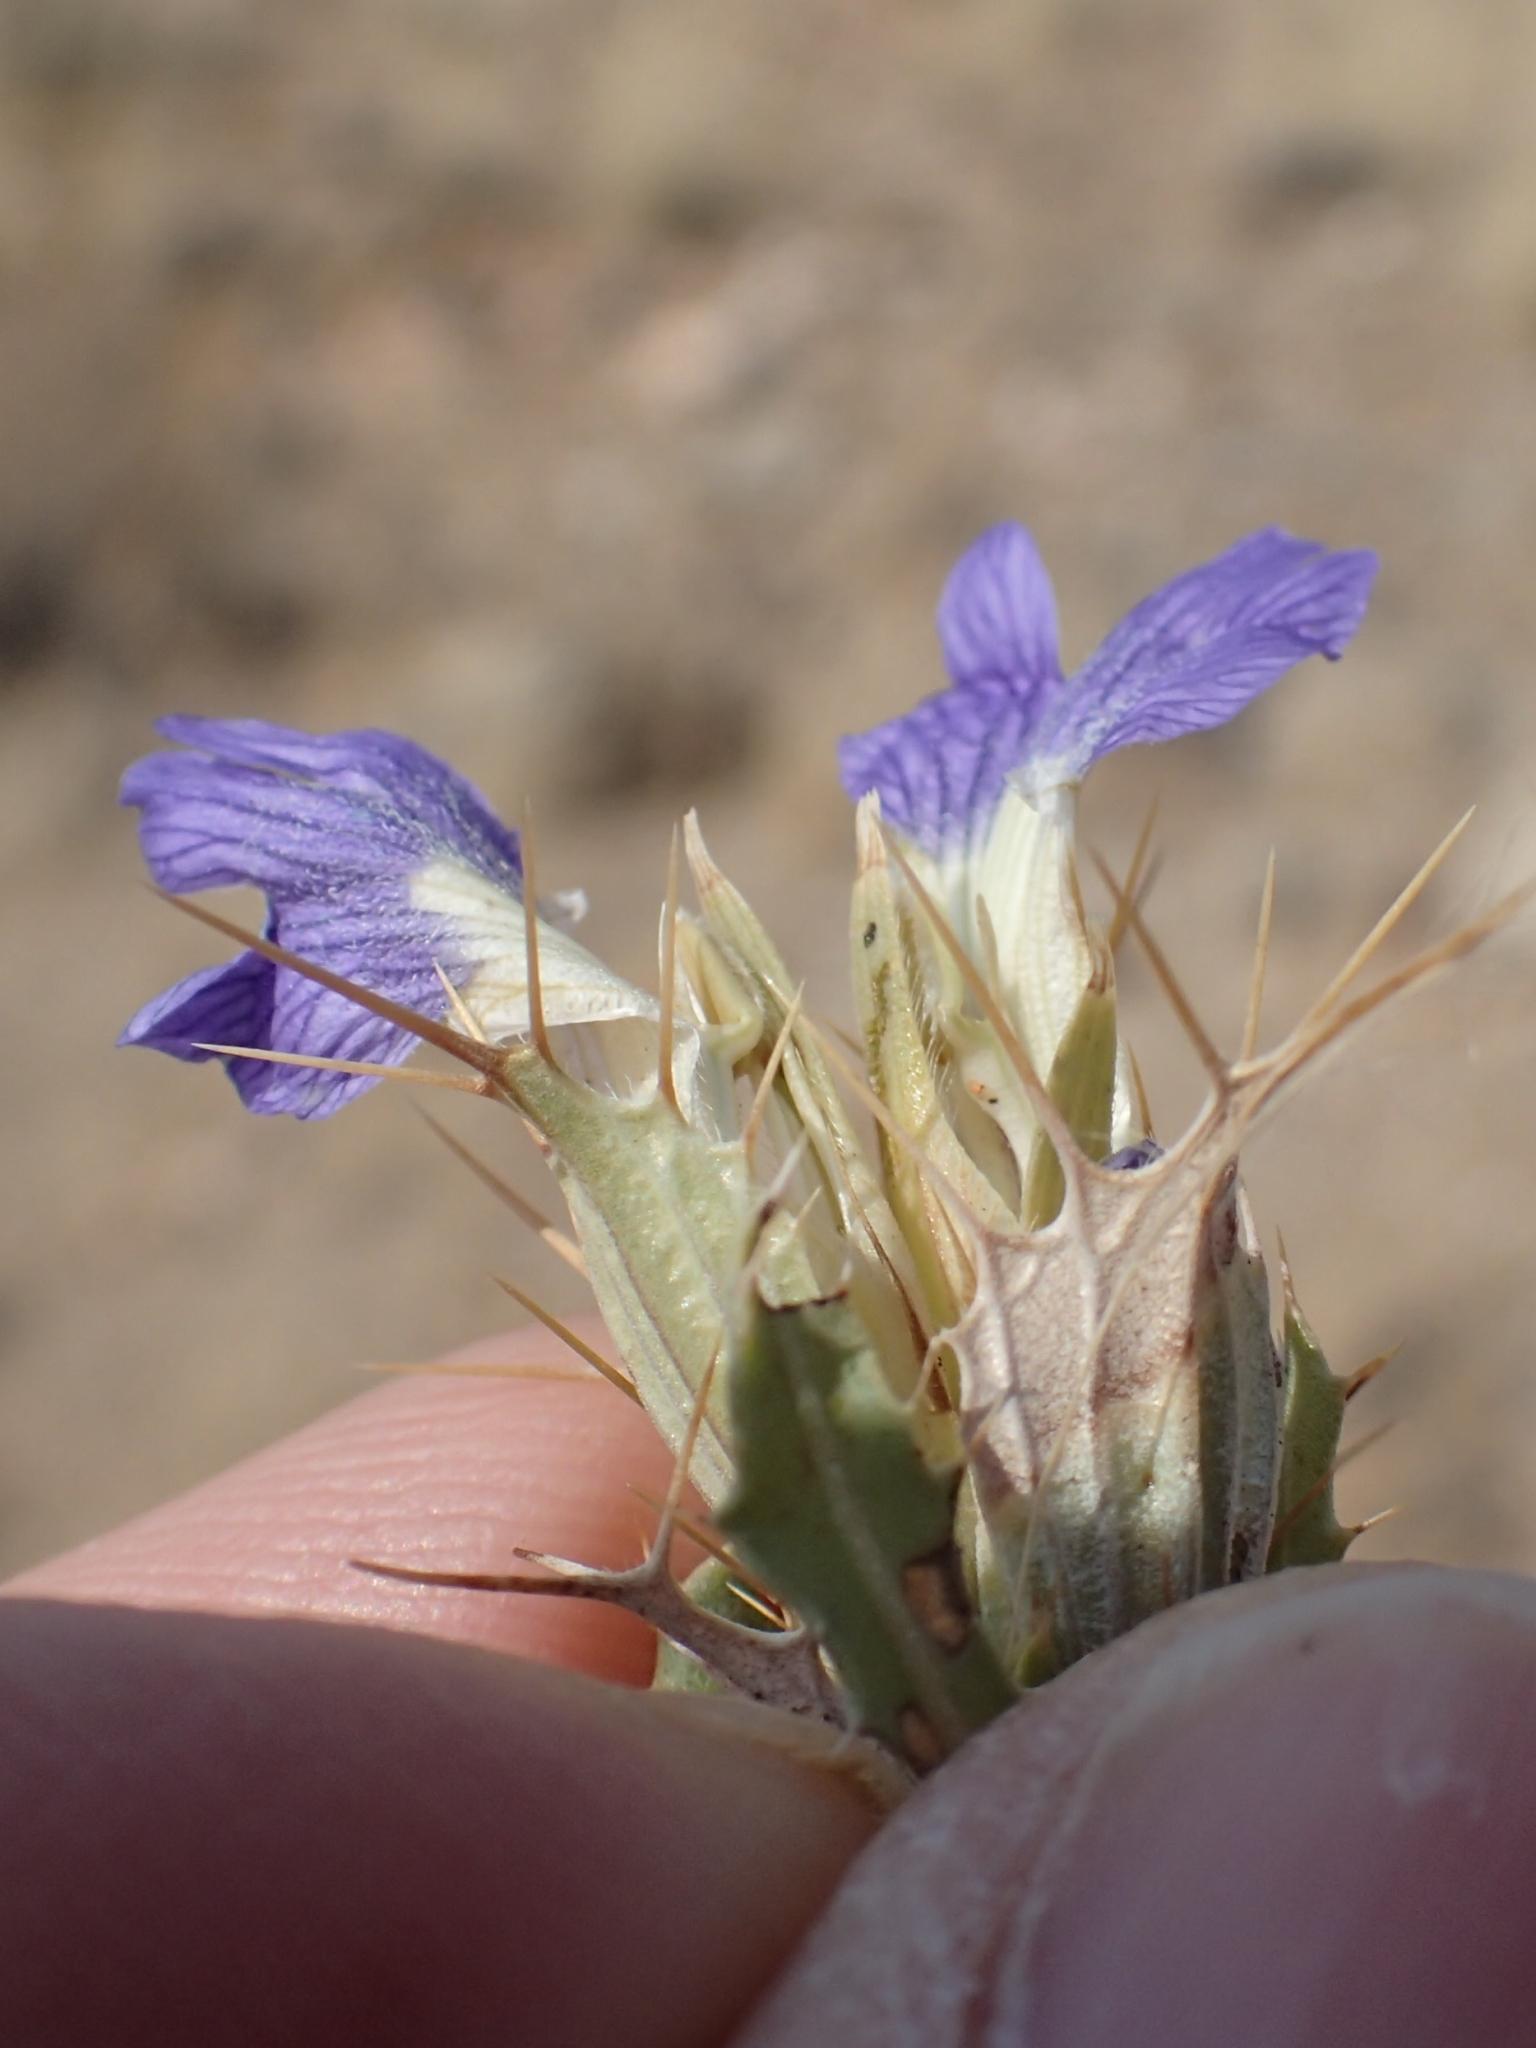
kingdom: Plantae
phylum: Tracheophyta
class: Magnoliopsida
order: Lamiales
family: Acanthaceae
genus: Blepharis
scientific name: Blepharis furcata
